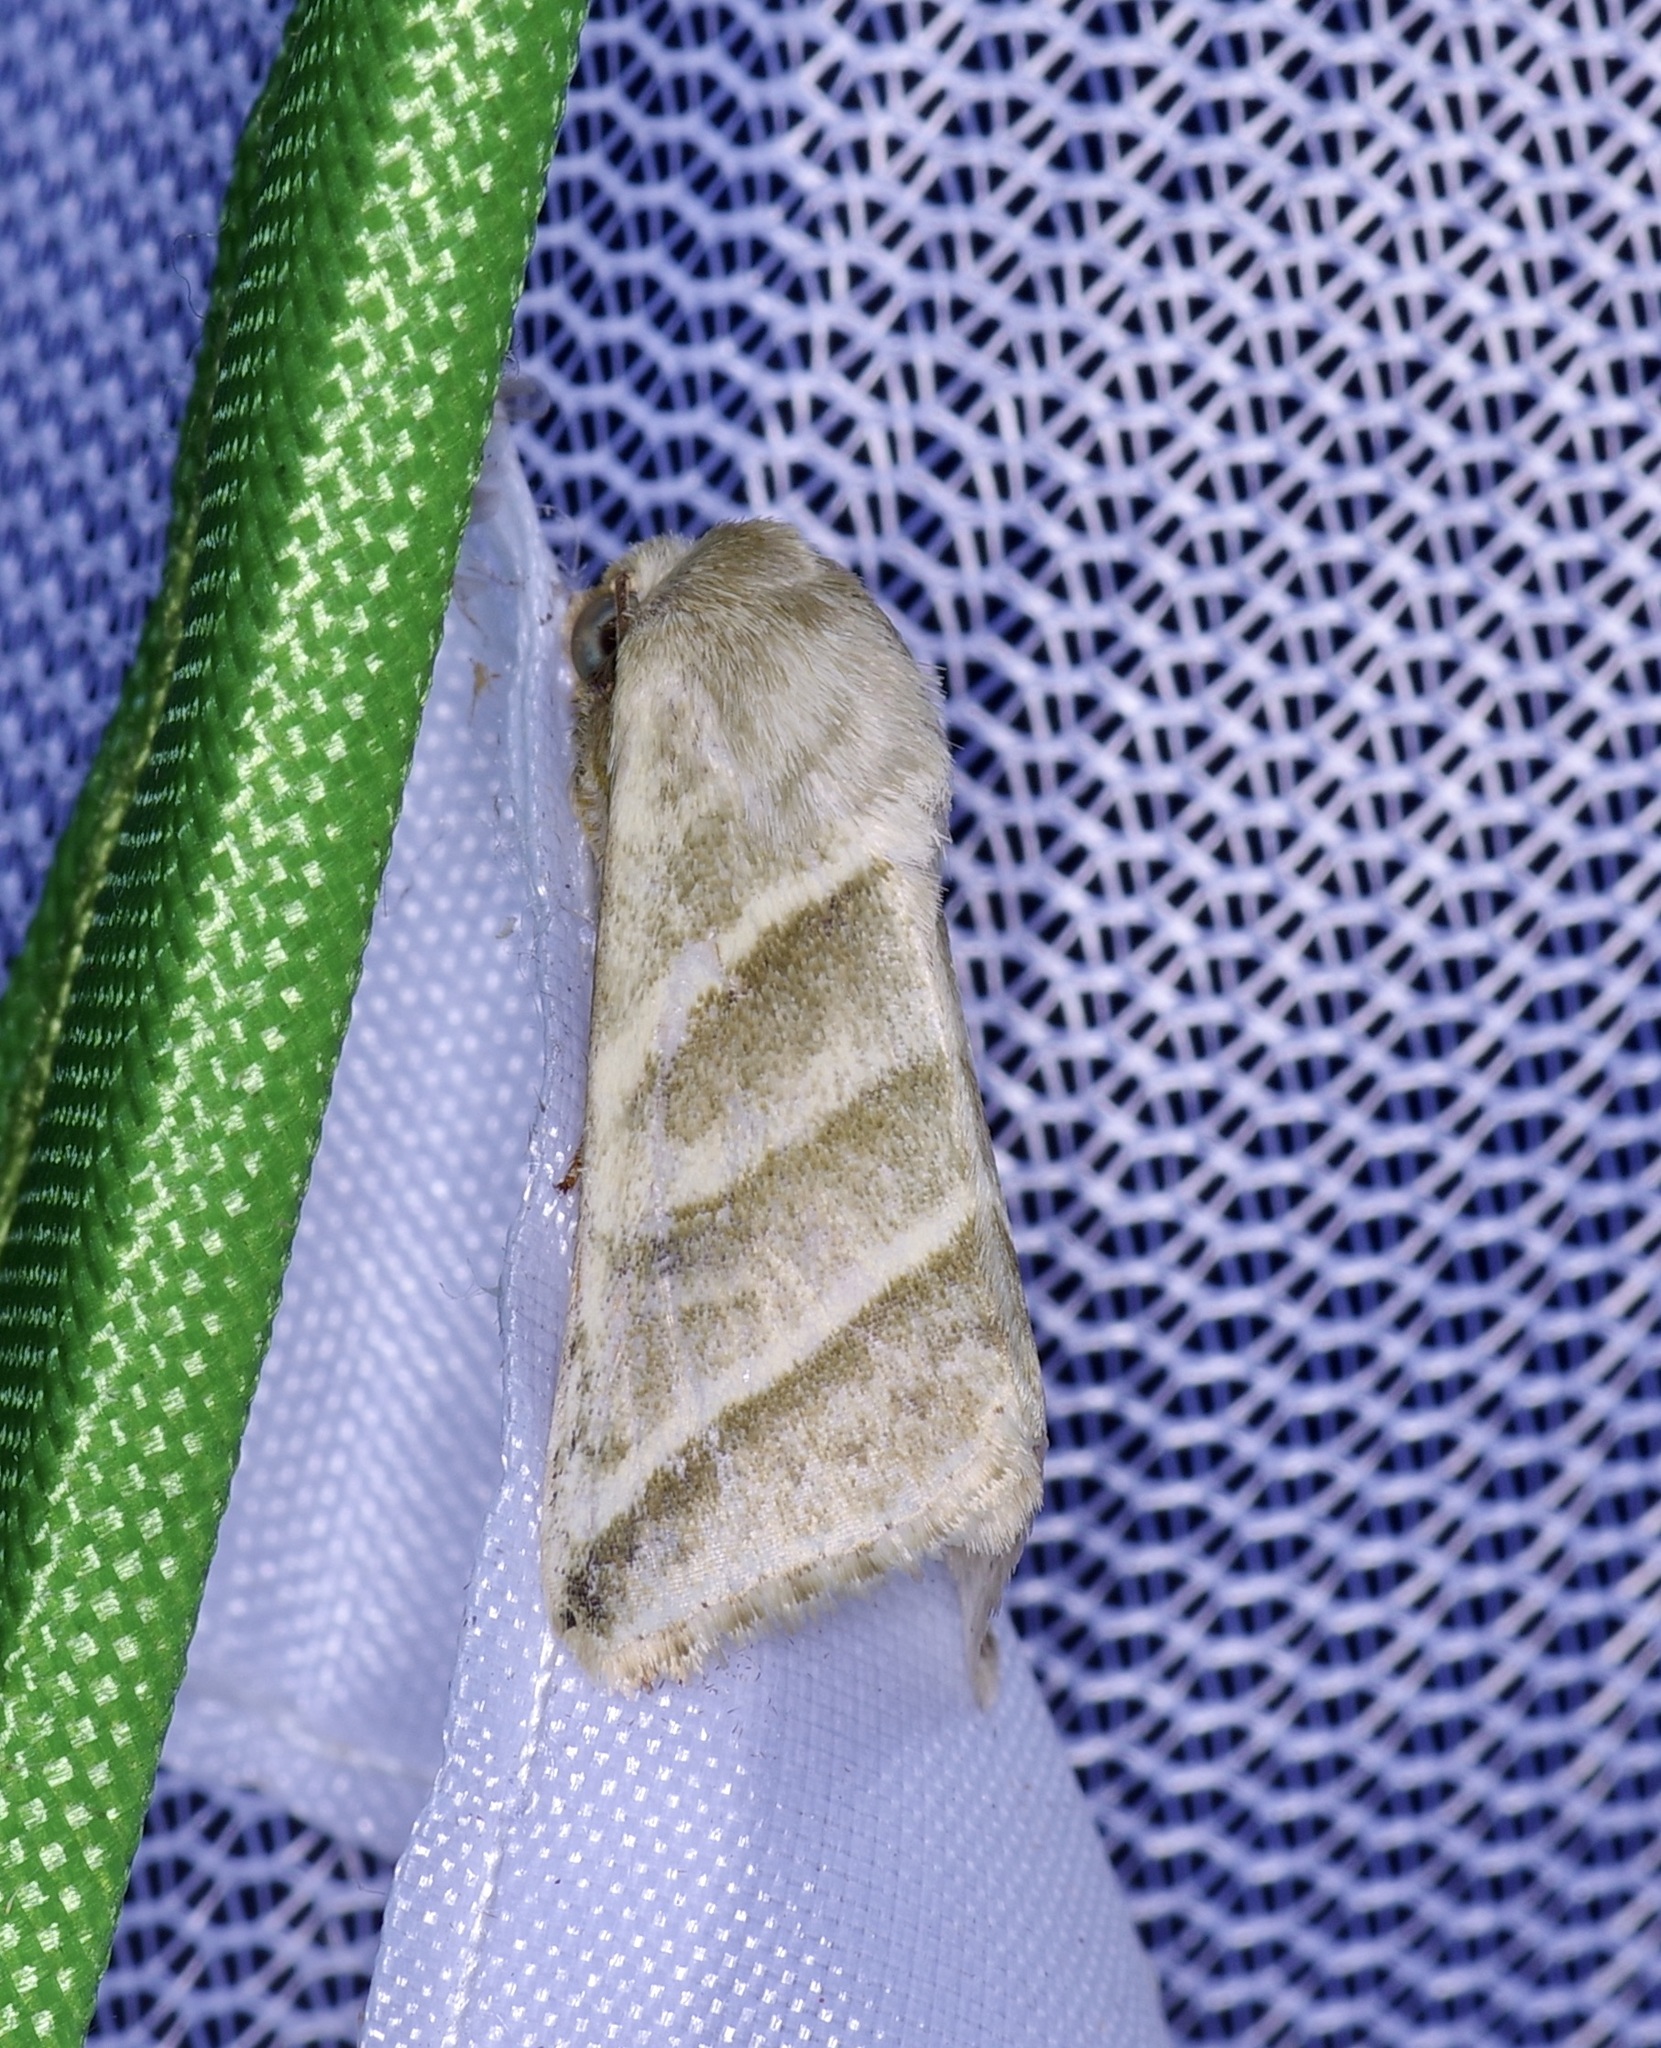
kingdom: Animalia
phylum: Arthropoda
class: Insecta
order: Lepidoptera
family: Noctuidae
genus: Chloridea
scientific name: Chloridea virescens
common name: Tobacco budworm
